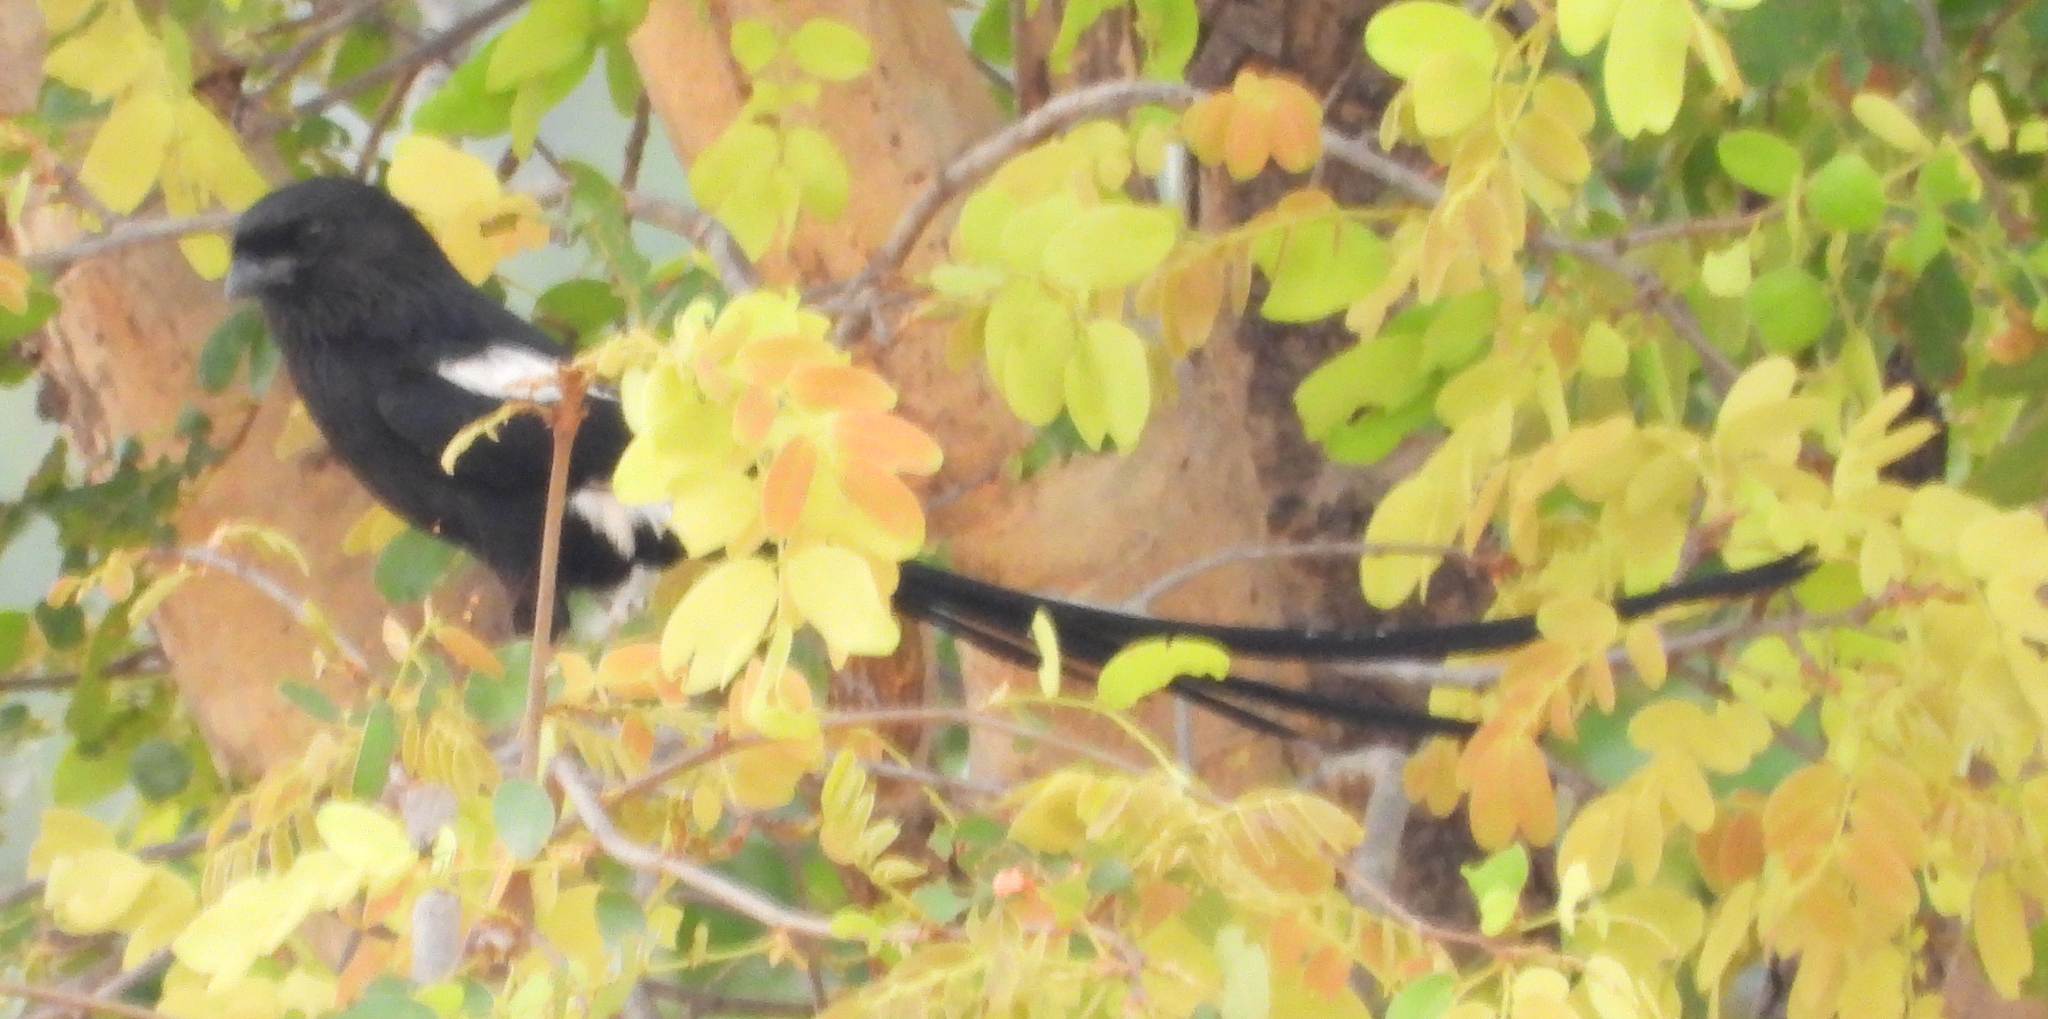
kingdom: Animalia
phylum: Chordata
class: Aves
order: Passeriformes
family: Laniidae
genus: Urolestes
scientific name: Urolestes melanoleucus
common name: Magpie shrike
